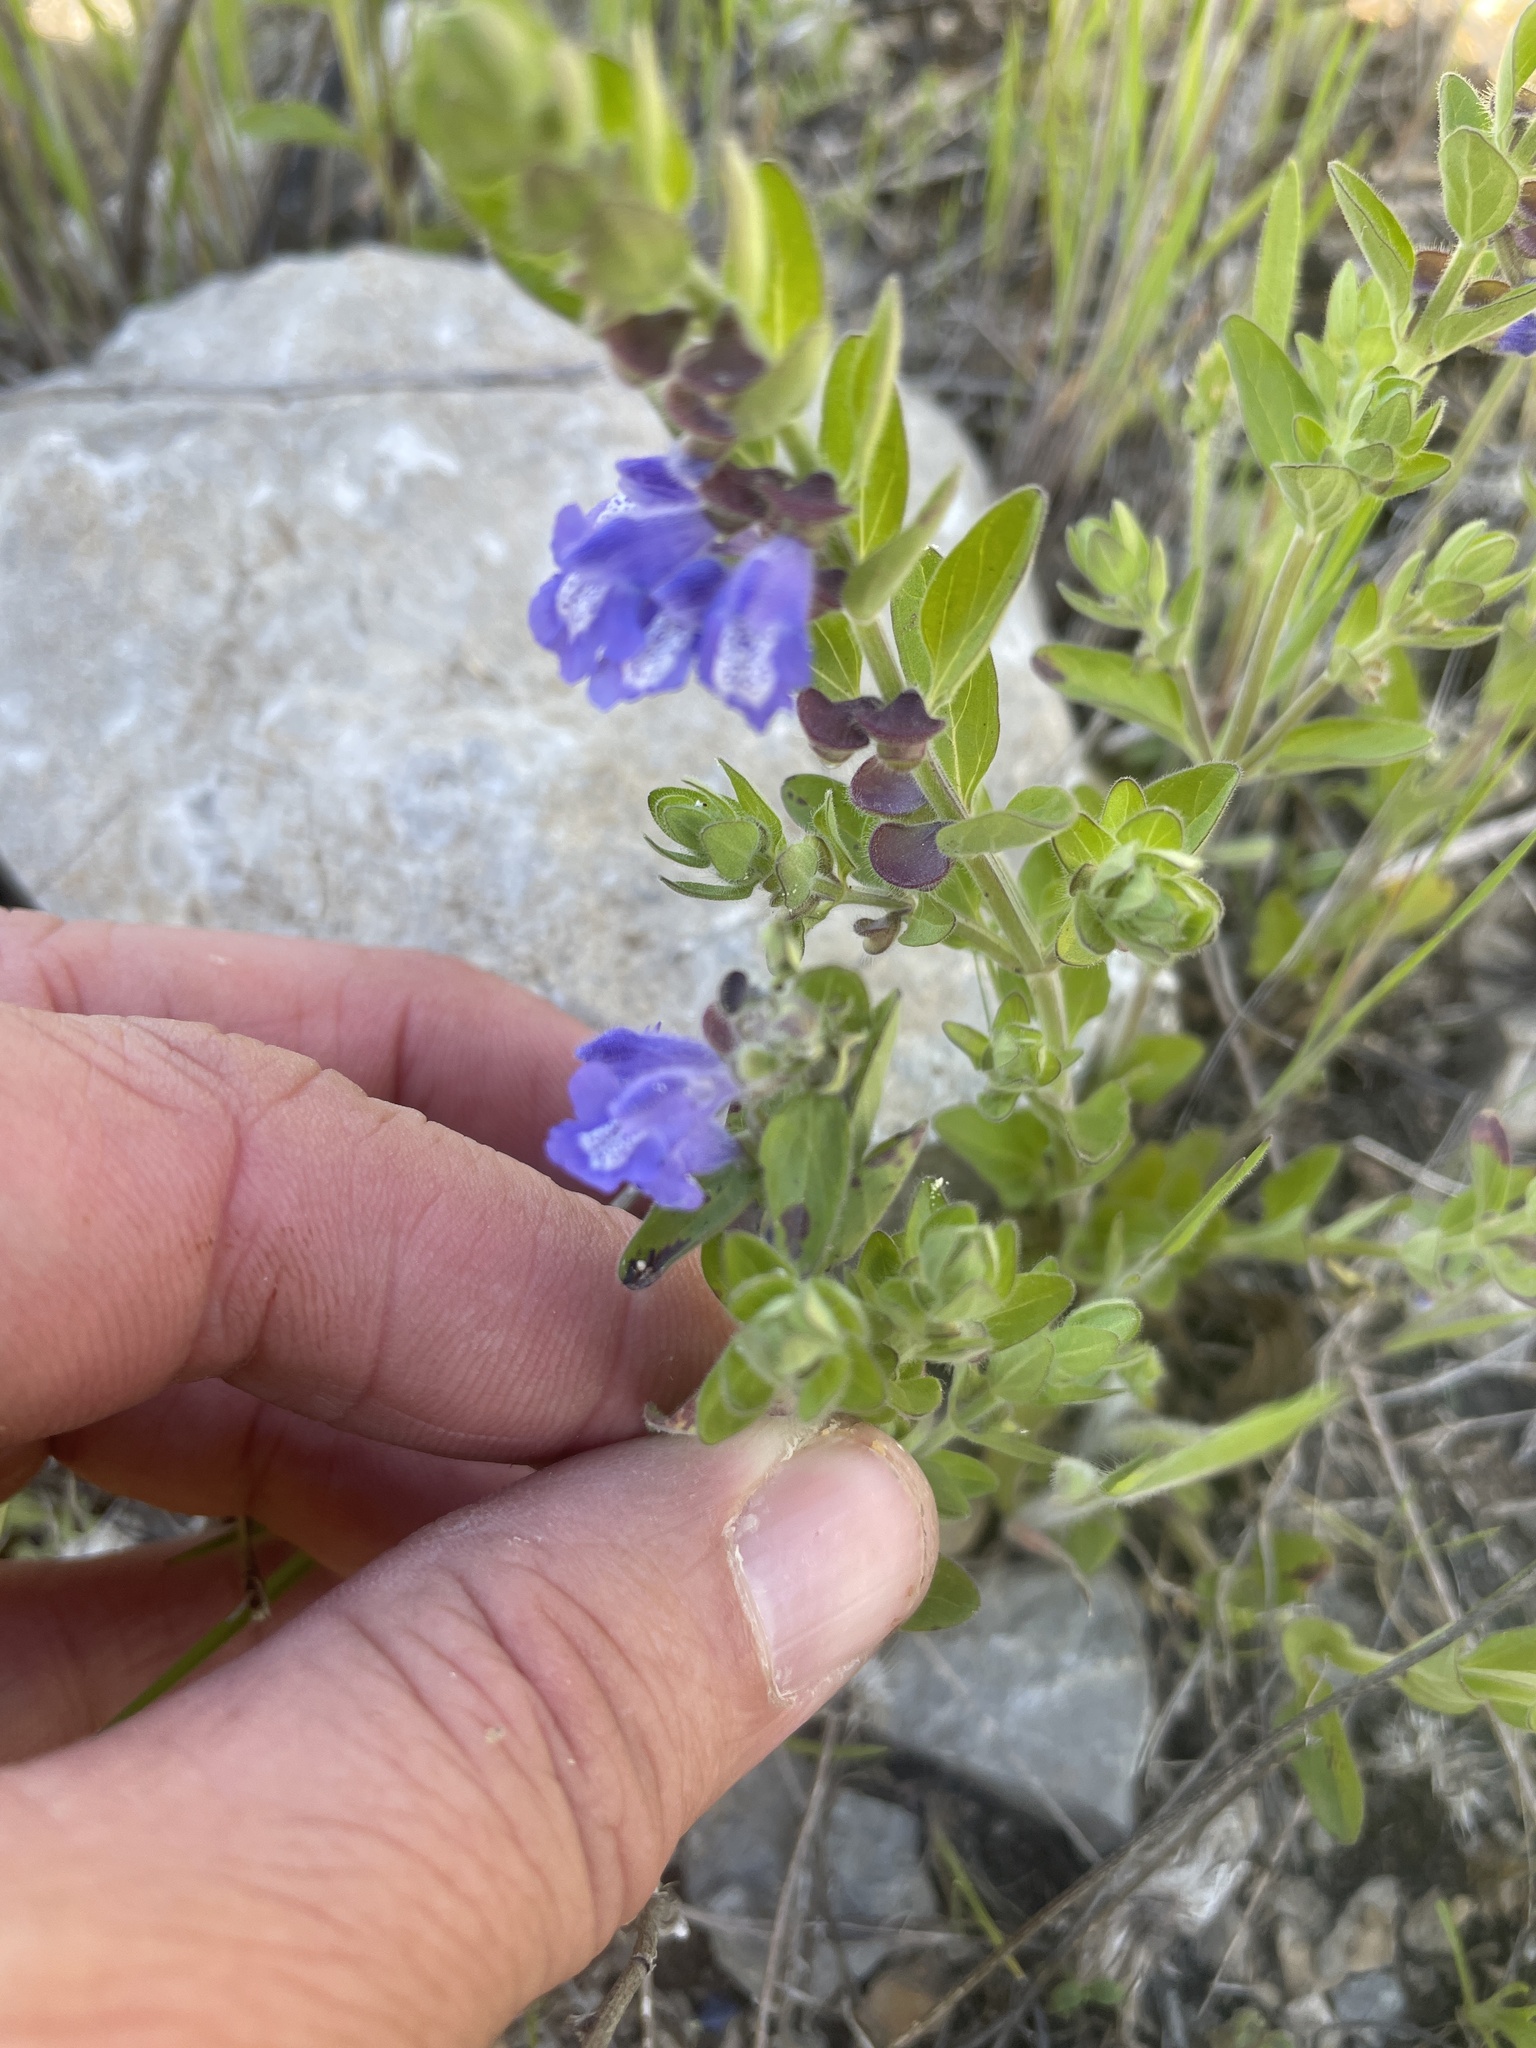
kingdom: Plantae
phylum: Tracheophyta
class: Magnoliopsida
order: Lamiales
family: Lamiaceae
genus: Scutellaria
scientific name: Scutellaria drummondii
